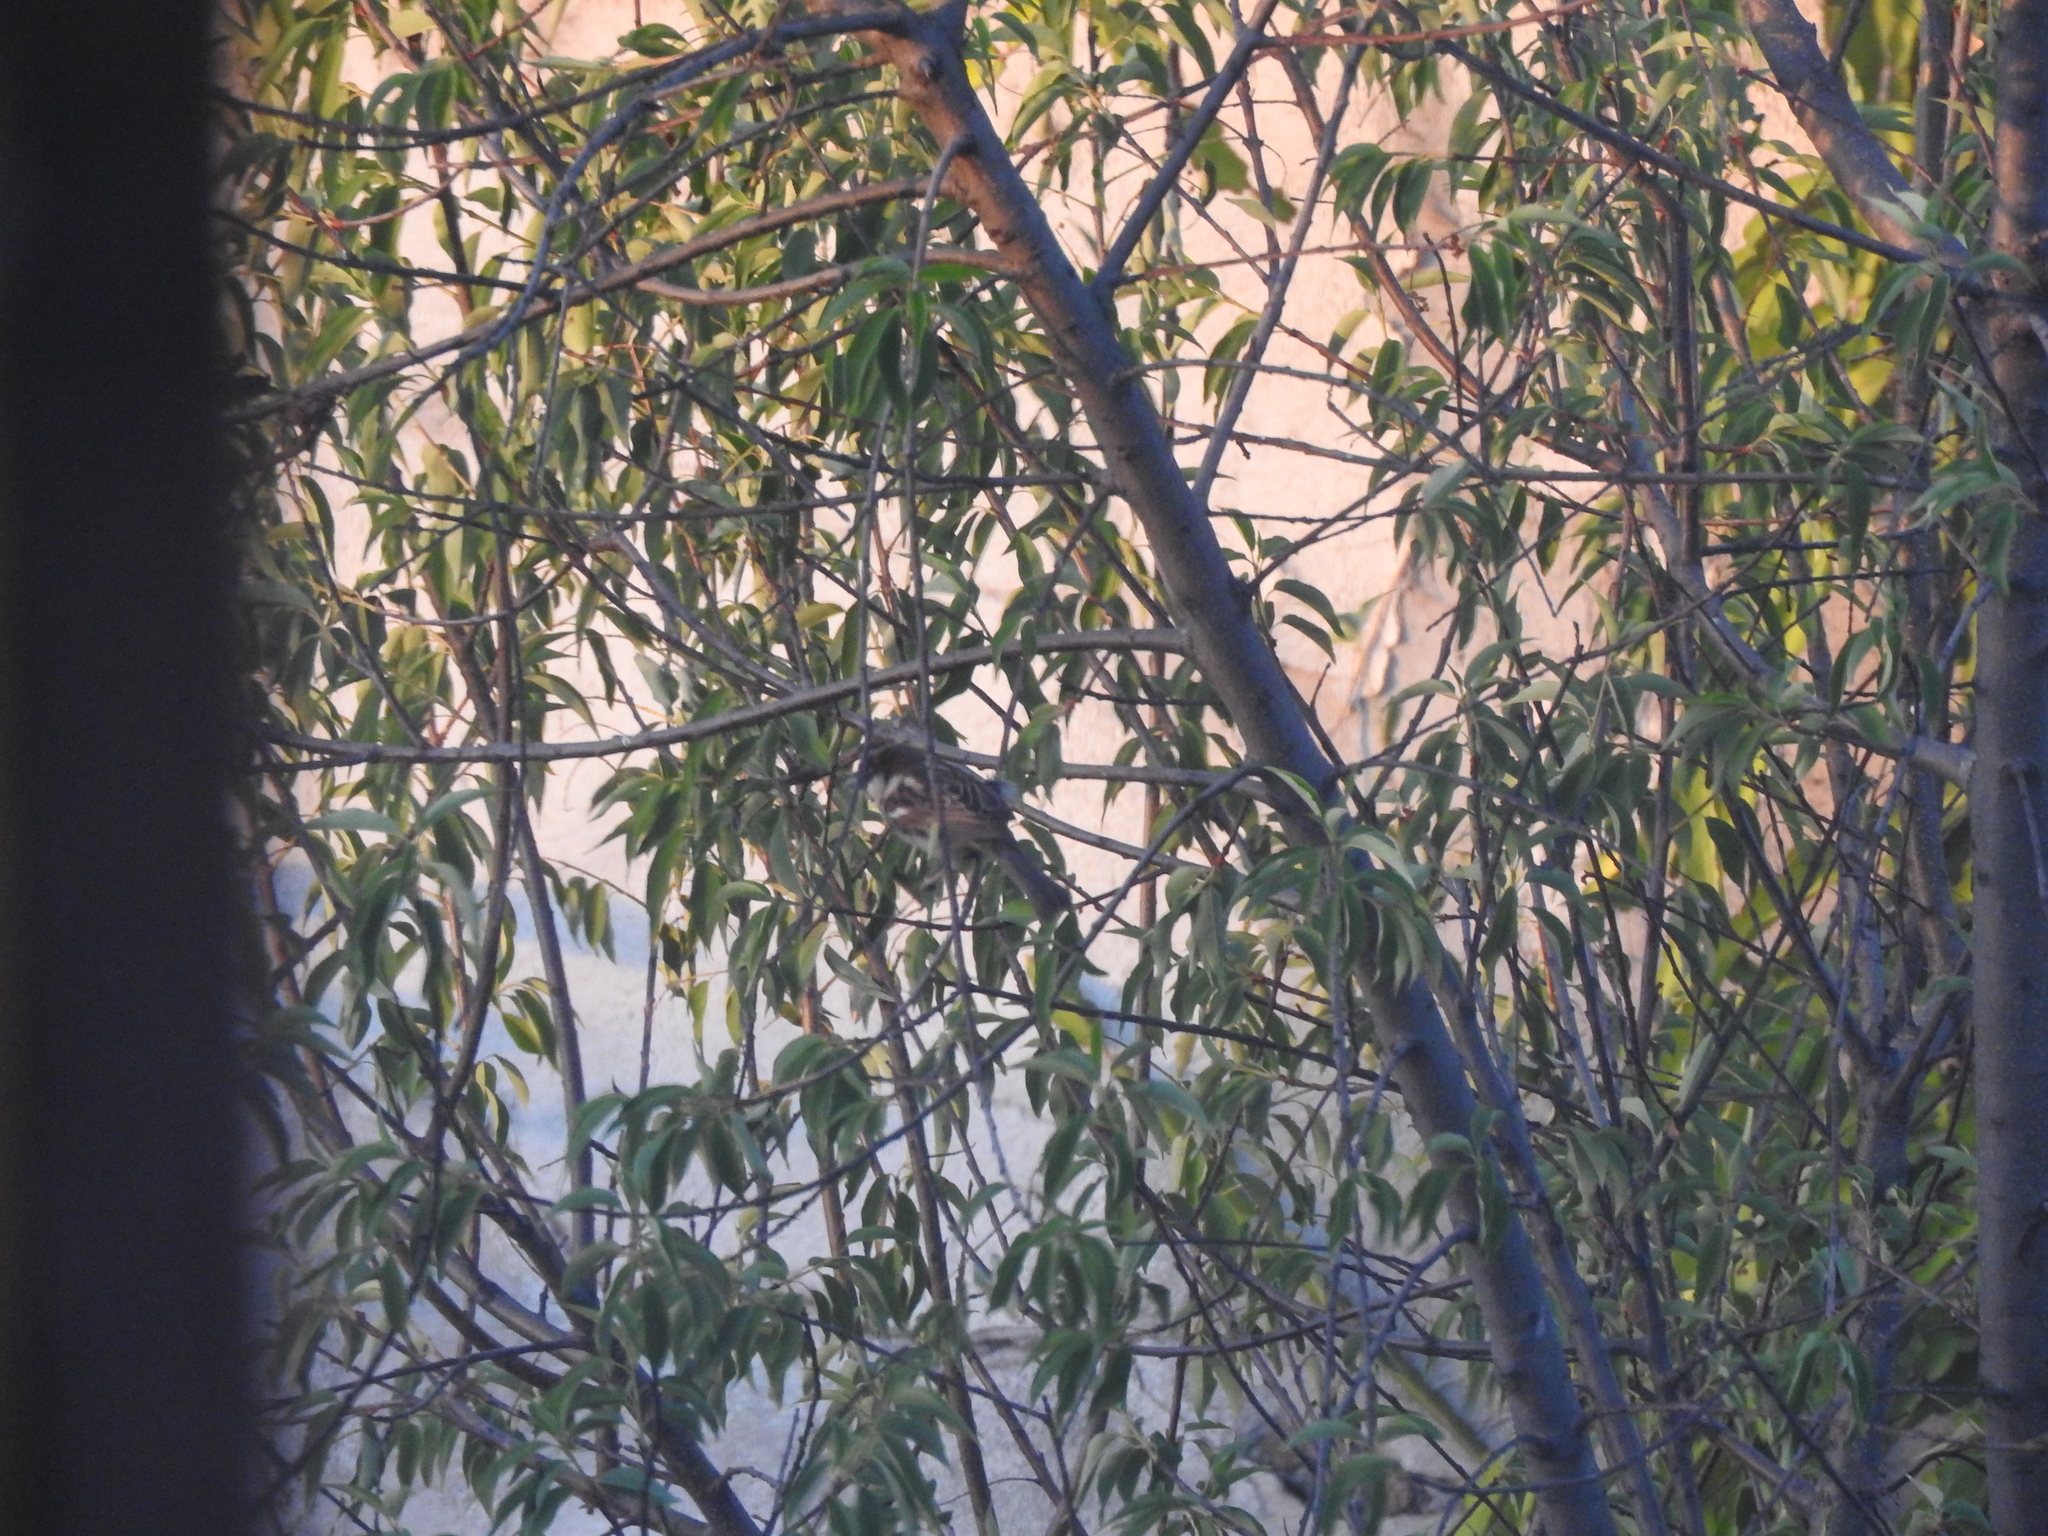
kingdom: Animalia
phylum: Chordata
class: Aves
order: Passeriformes
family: Passeridae
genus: Passer
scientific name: Passer domesticus
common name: House sparrow
